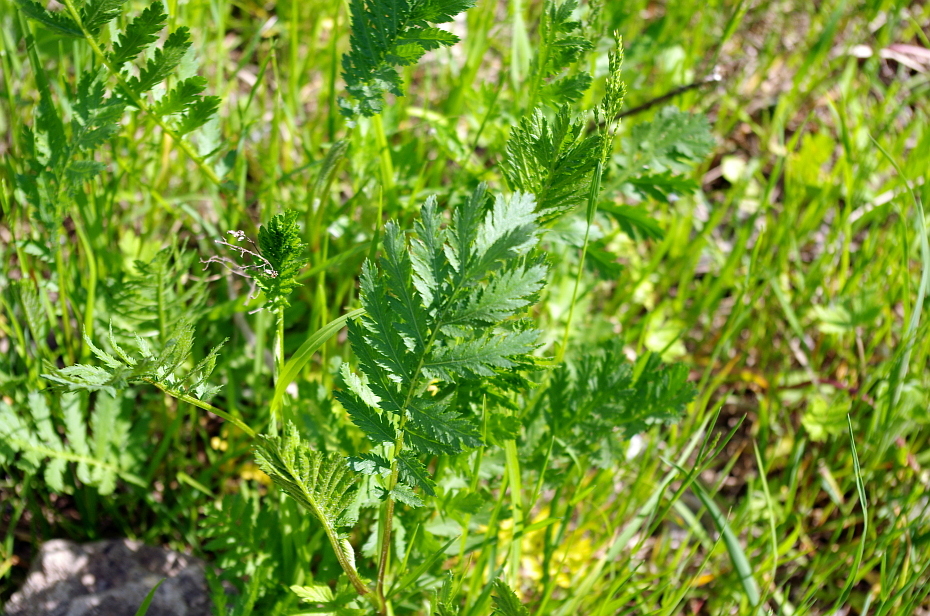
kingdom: Plantae
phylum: Tracheophyta
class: Magnoliopsida
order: Asterales
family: Asteraceae
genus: Tanacetum
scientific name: Tanacetum vulgare
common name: Common tansy
